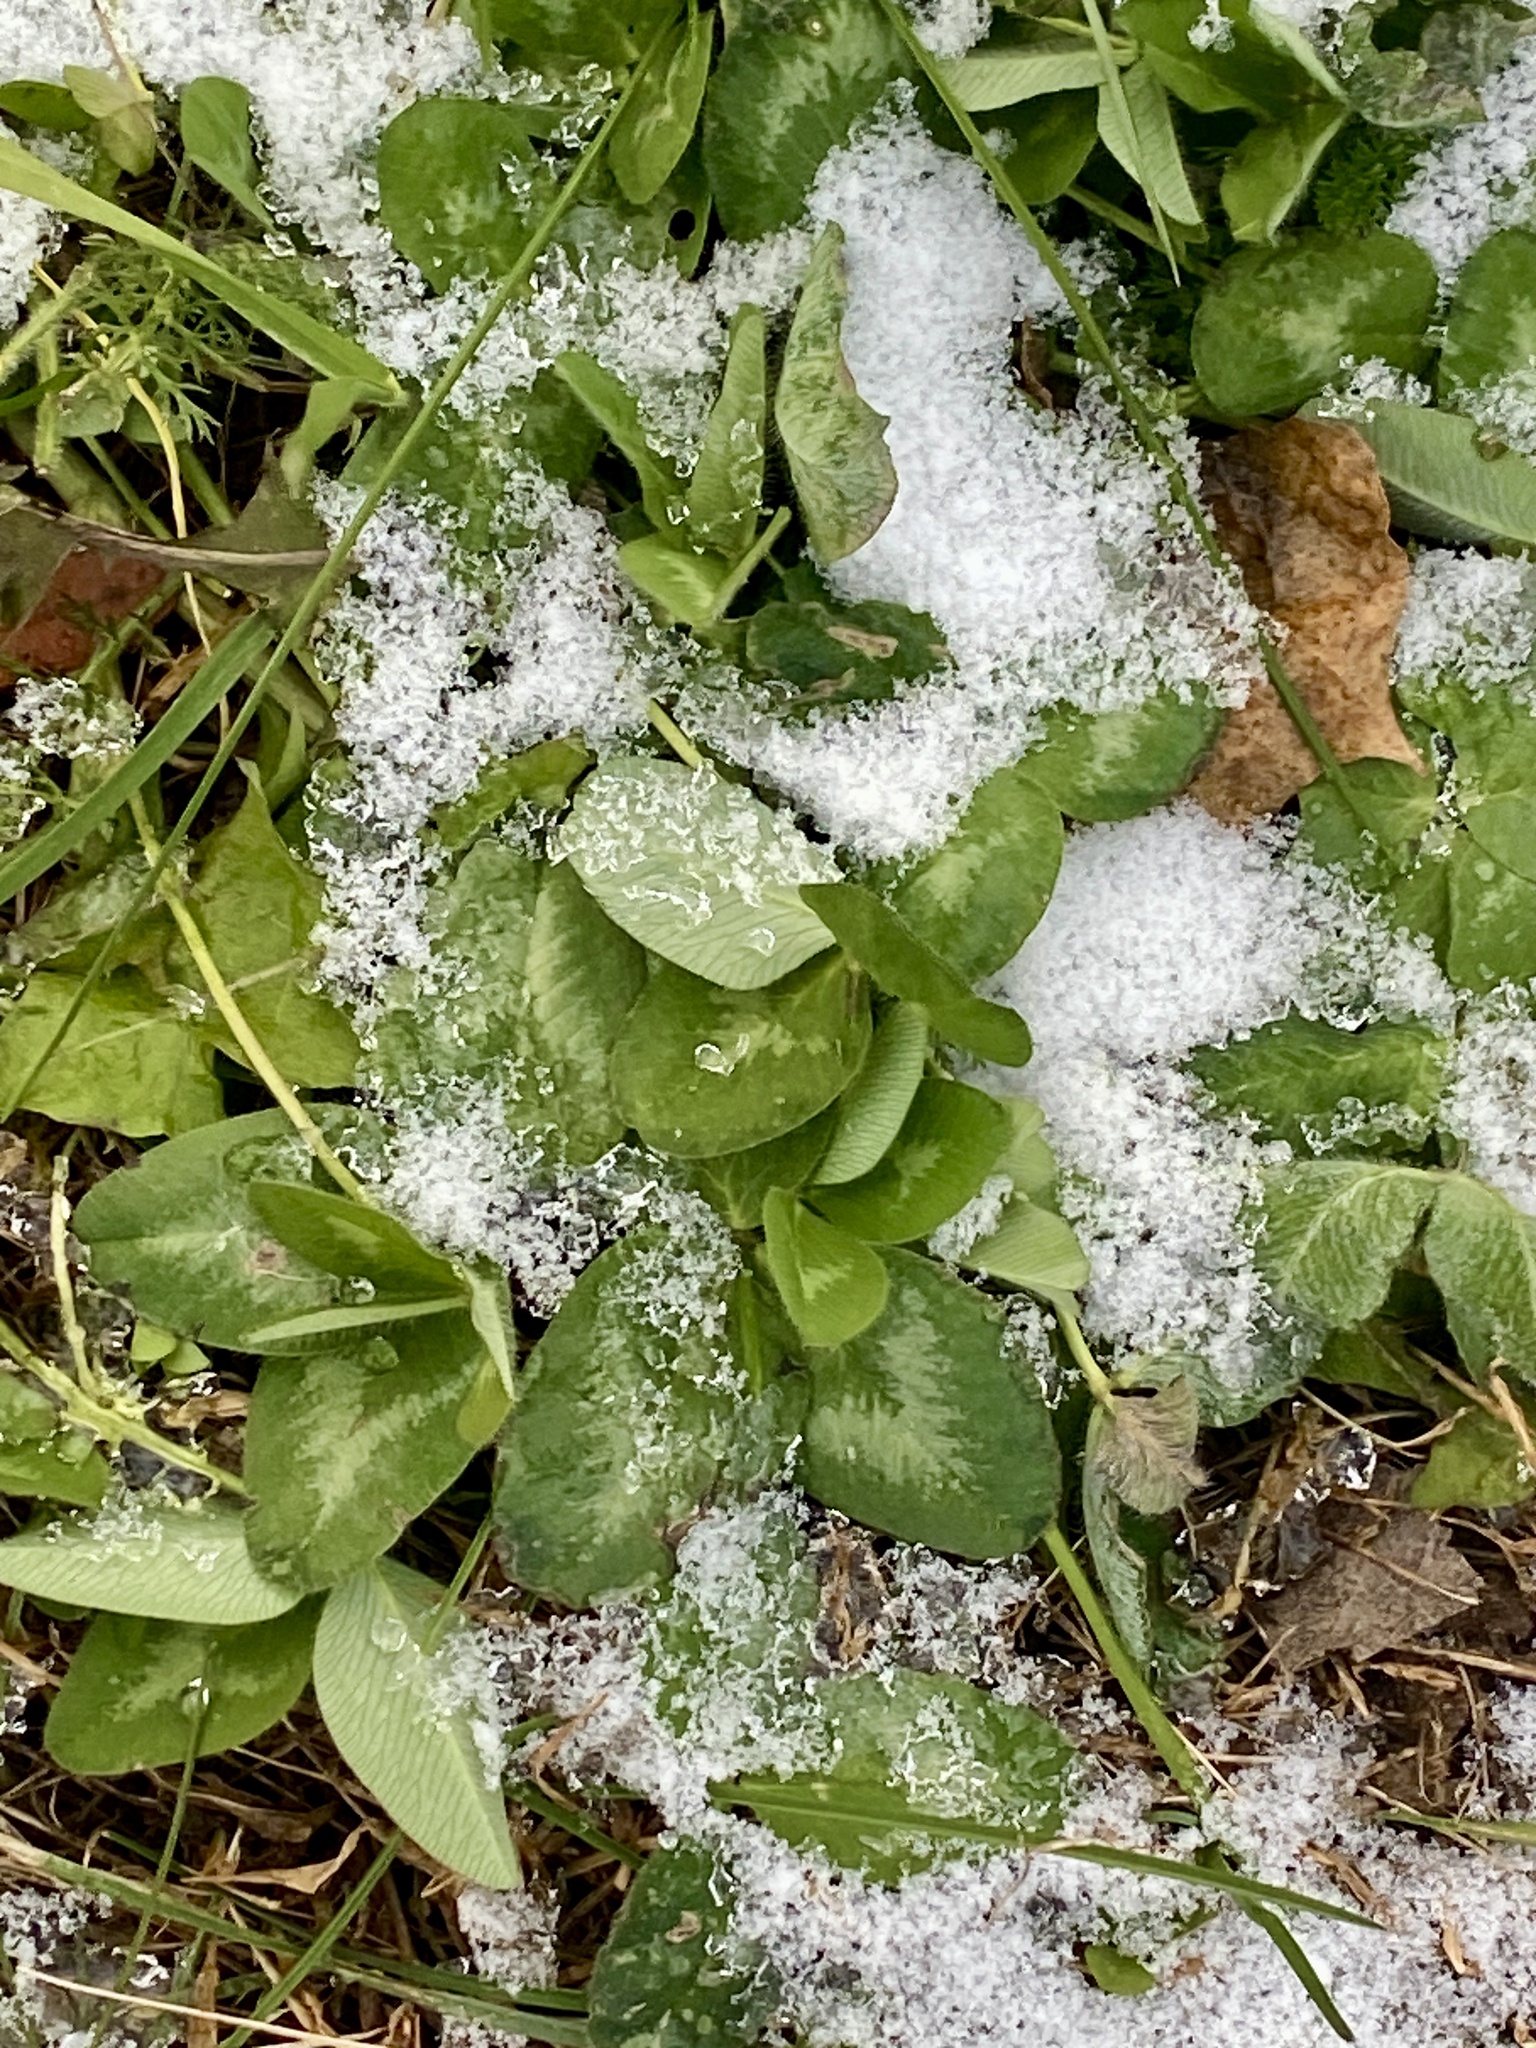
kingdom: Plantae
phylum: Tracheophyta
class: Magnoliopsida
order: Fabales
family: Fabaceae
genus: Trifolium
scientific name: Trifolium pratense
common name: Red clover
